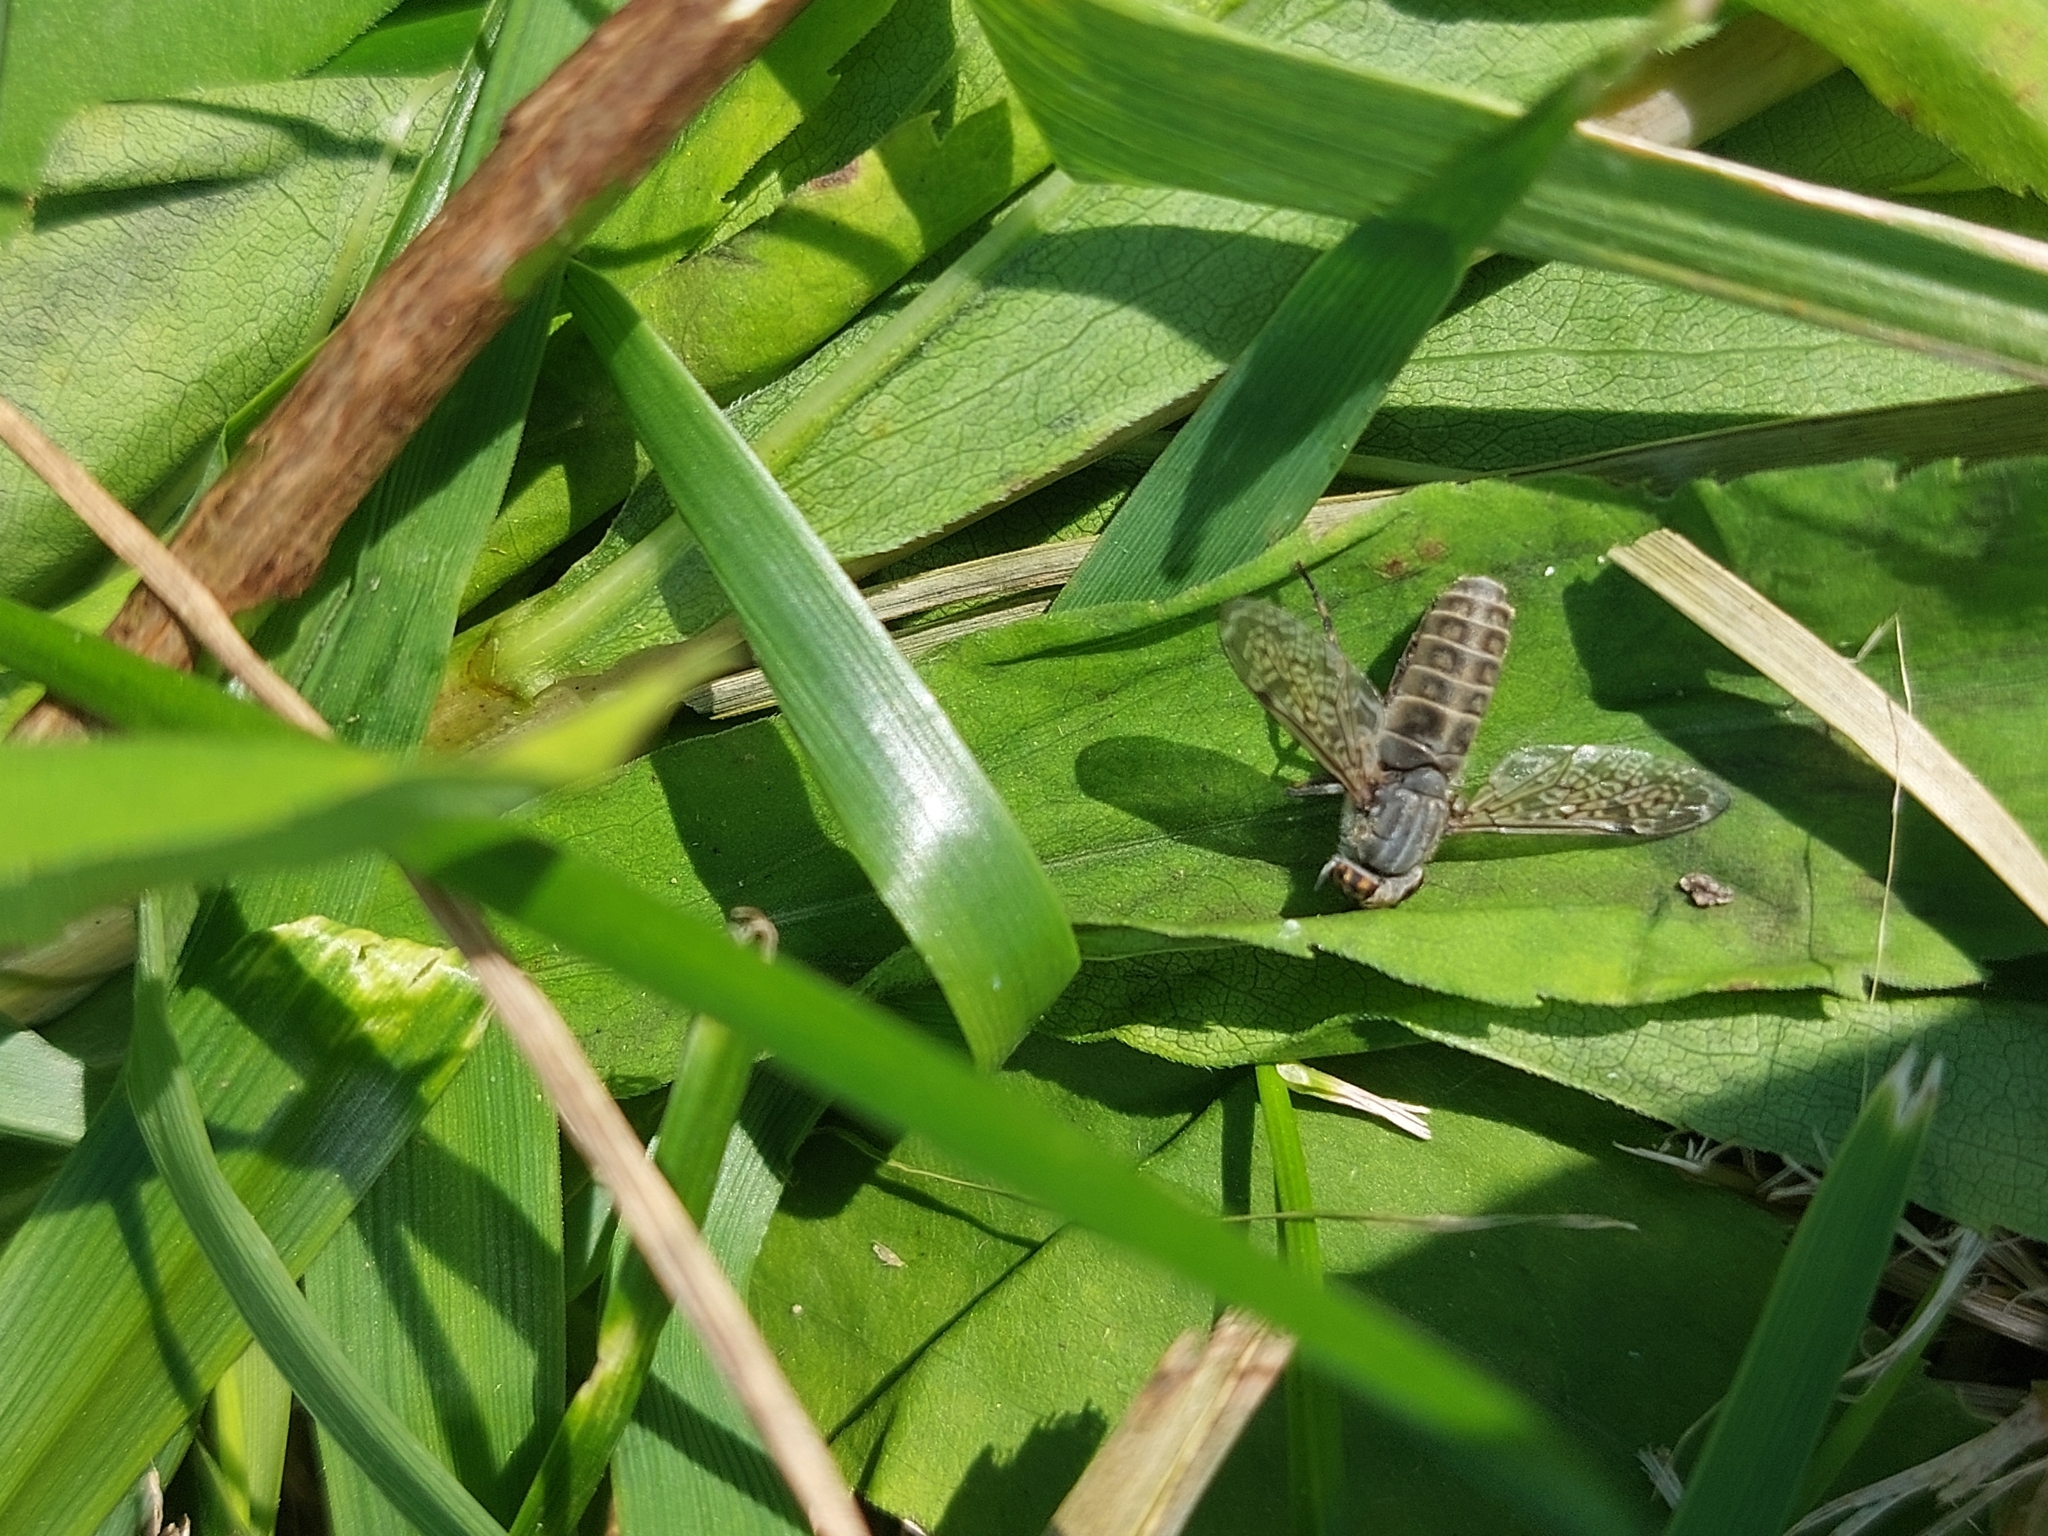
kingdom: Animalia
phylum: Arthropoda
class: Insecta
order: Diptera
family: Tabanidae
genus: Haematopota
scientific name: Haematopota pluvialis
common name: Common horse fly
